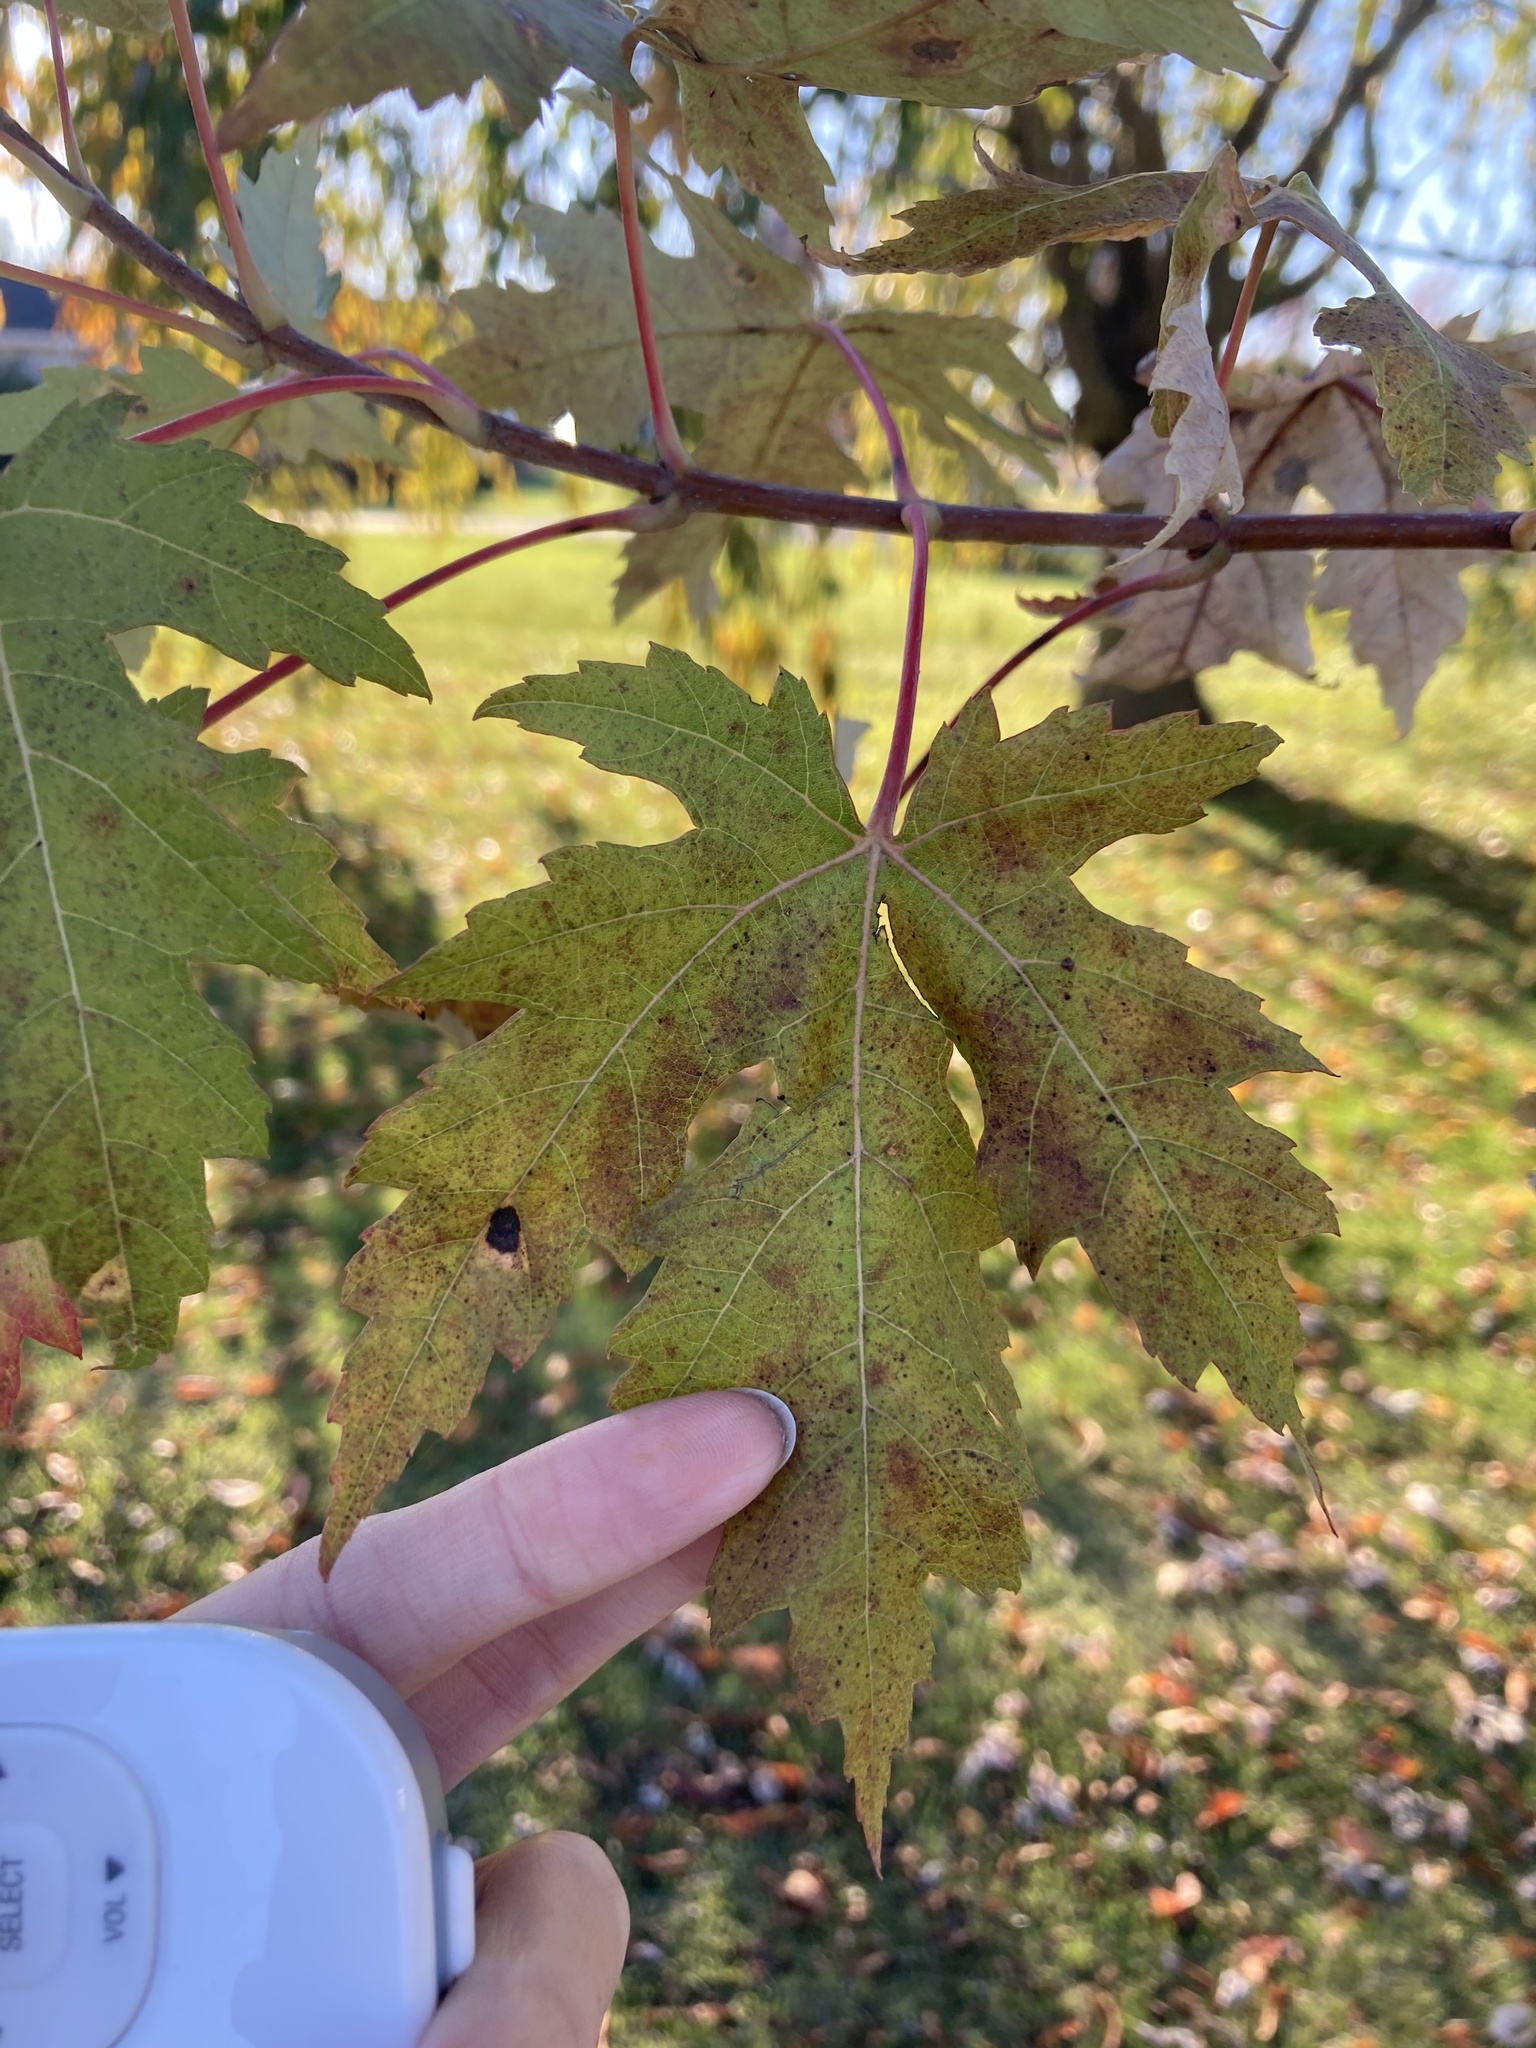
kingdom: Plantae
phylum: Tracheophyta
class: Magnoliopsida
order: Sapindales
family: Sapindaceae
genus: Acer
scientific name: Acer saccharinum
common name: Silver maple
